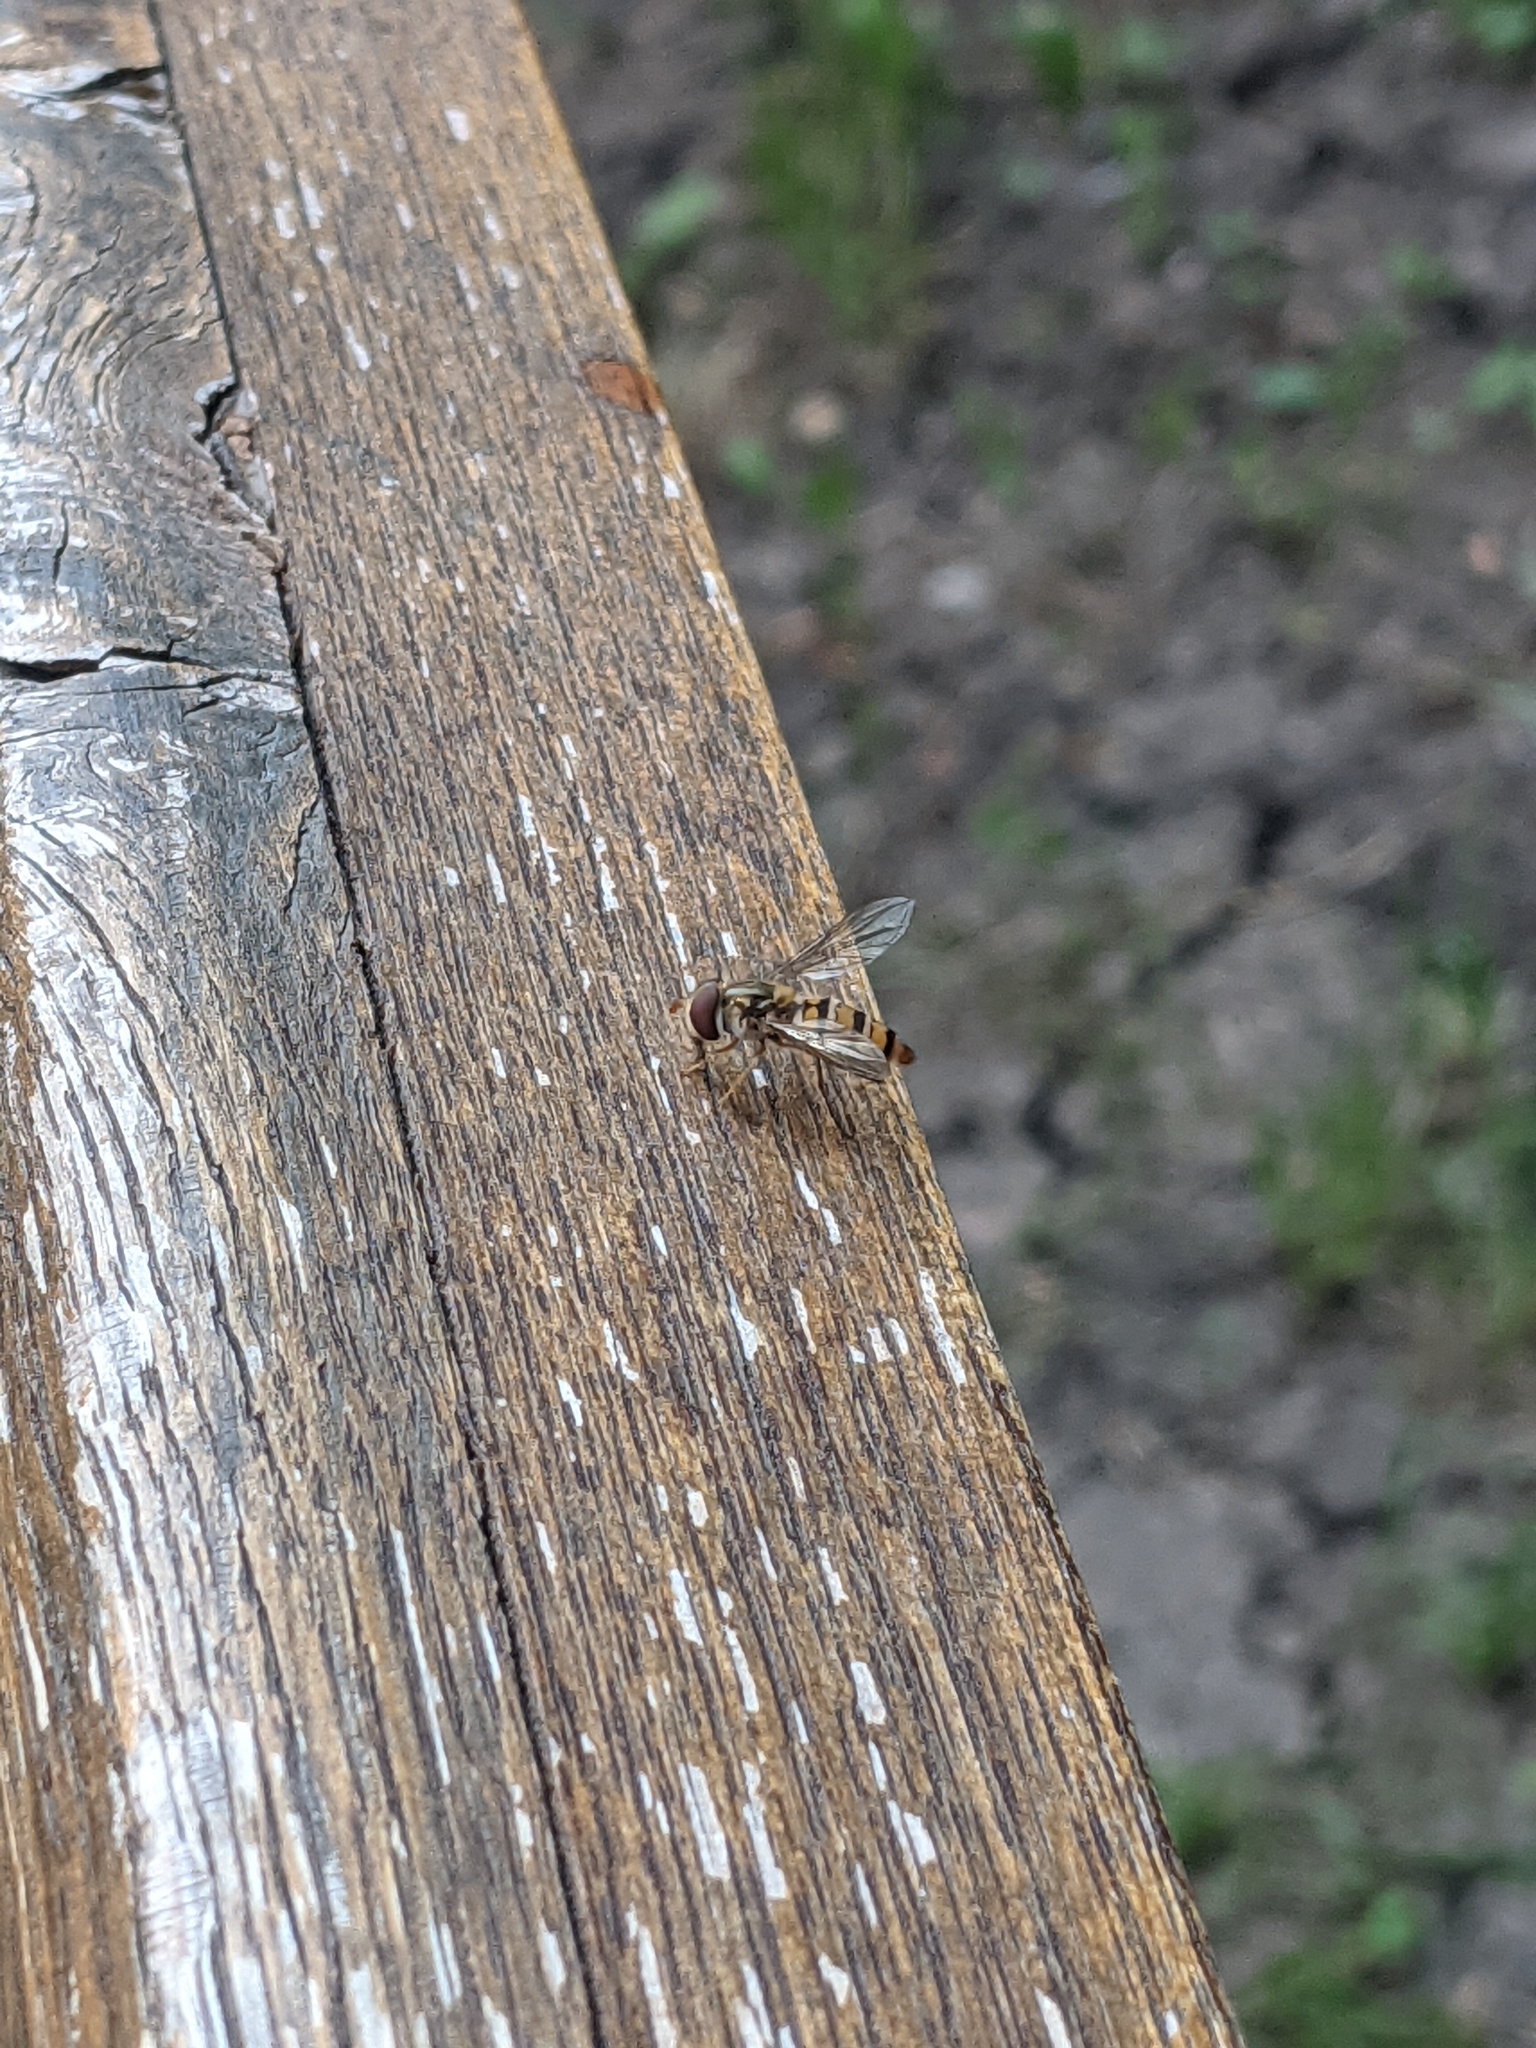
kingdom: Animalia
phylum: Arthropoda
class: Insecta
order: Diptera
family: Syrphidae
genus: Episyrphus
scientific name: Episyrphus balteatus
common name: Marmalade hoverfly
